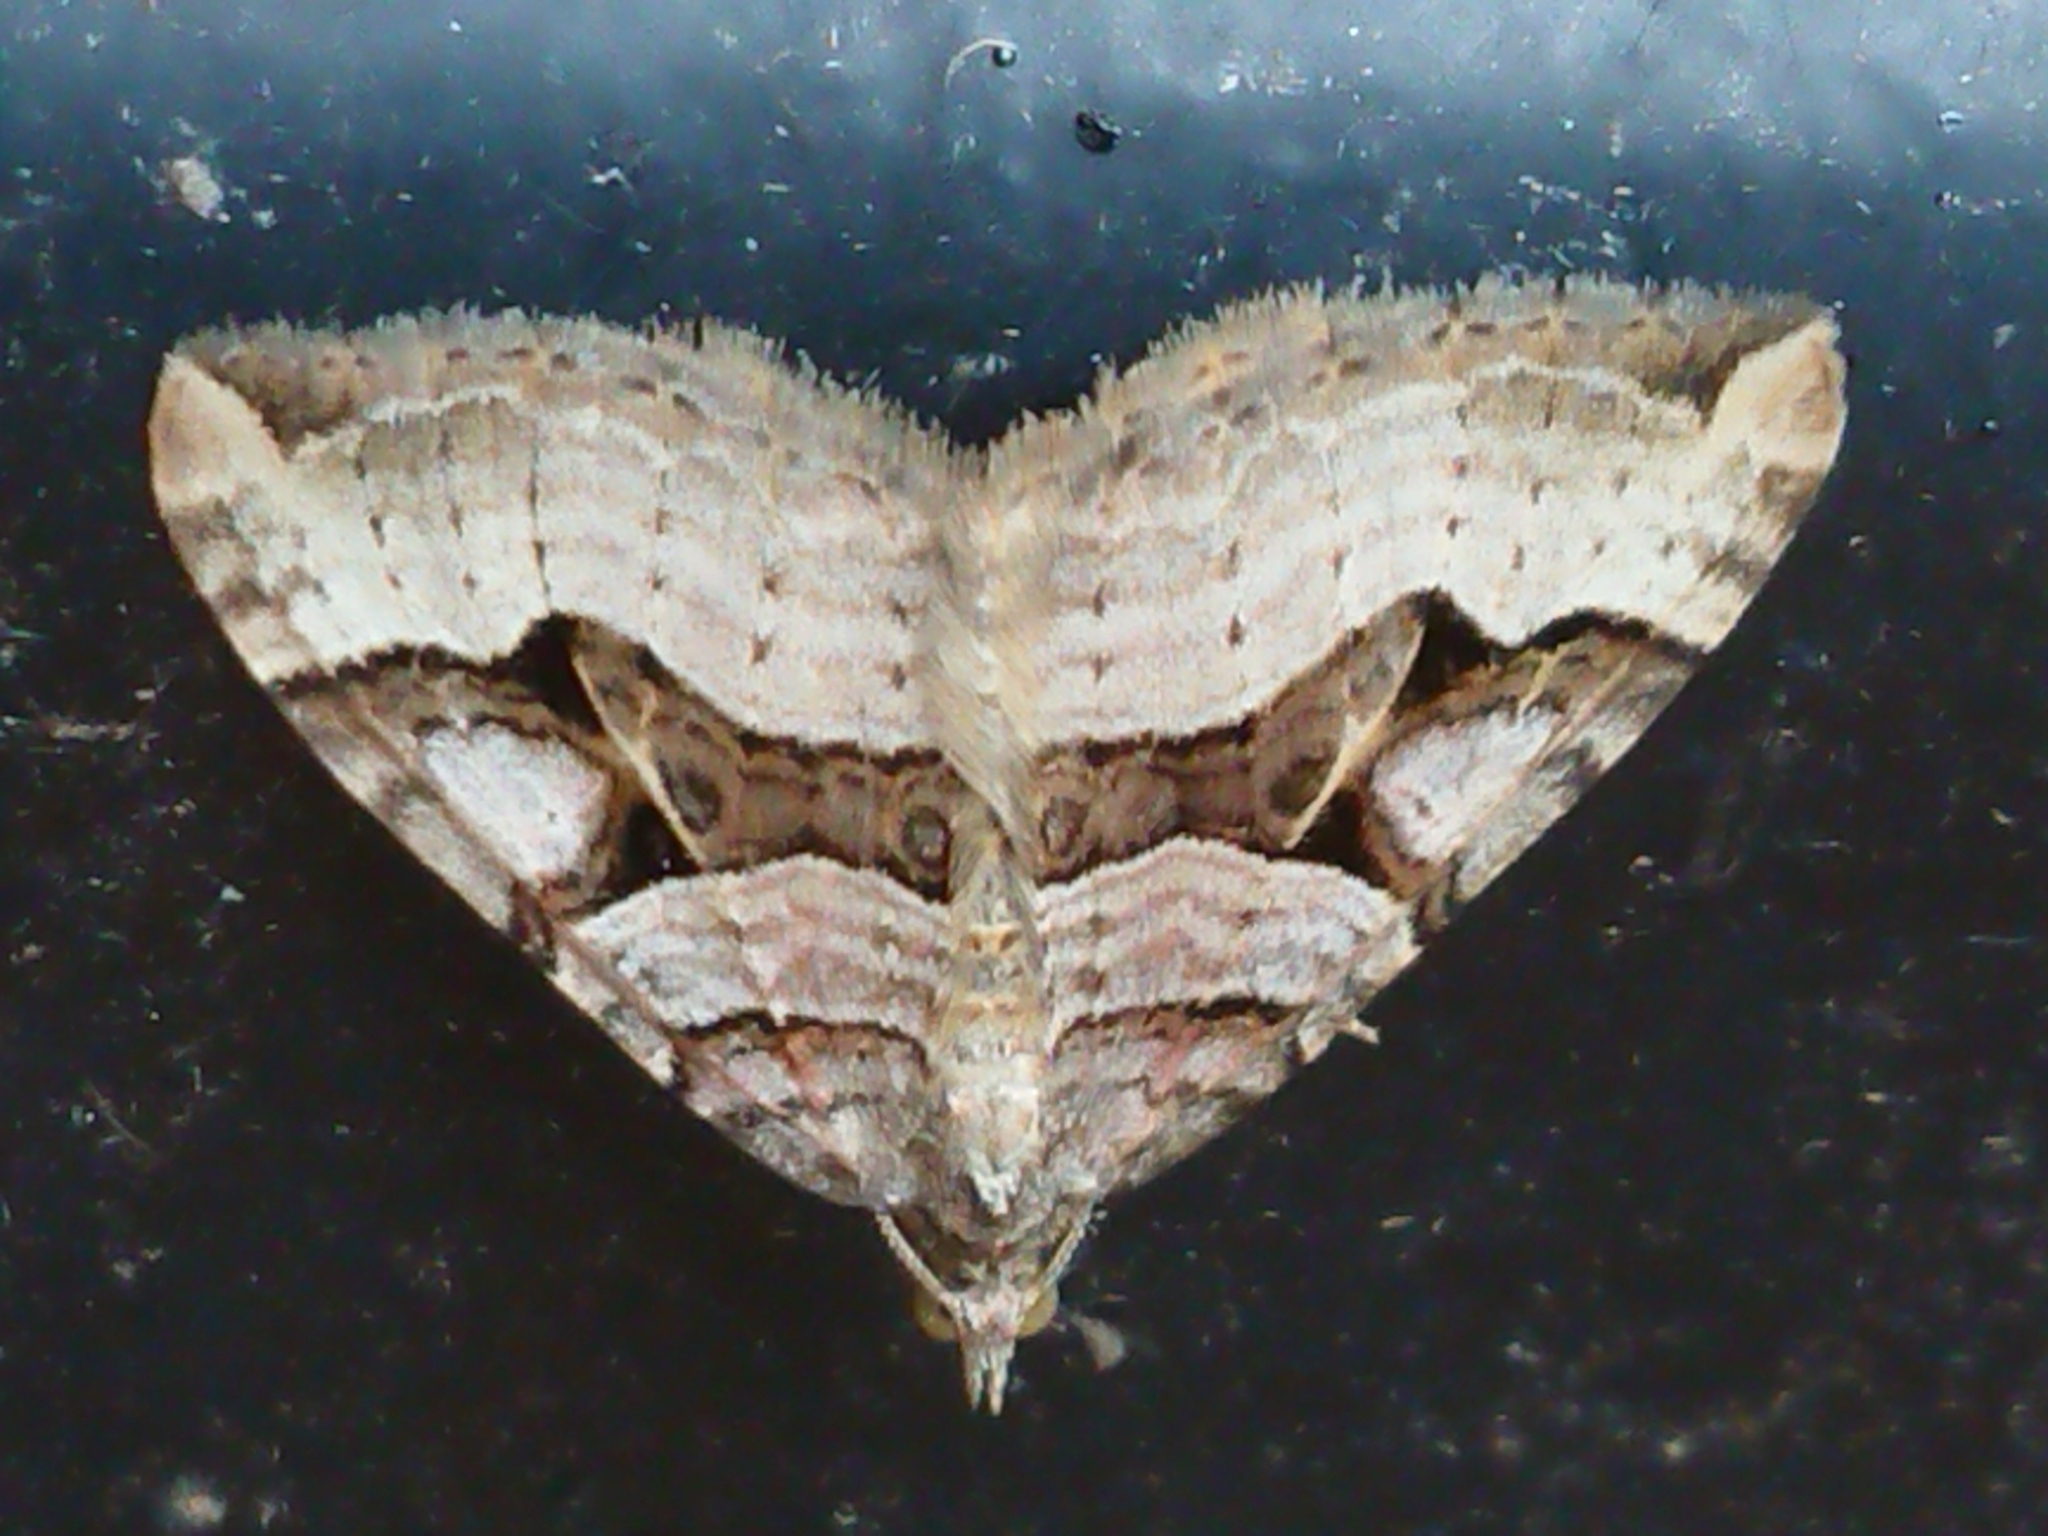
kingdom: Animalia
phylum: Arthropoda
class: Insecta
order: Lepidoptera
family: Geometridae
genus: Xanthorhoe
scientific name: Xanthorhoe semifissata
